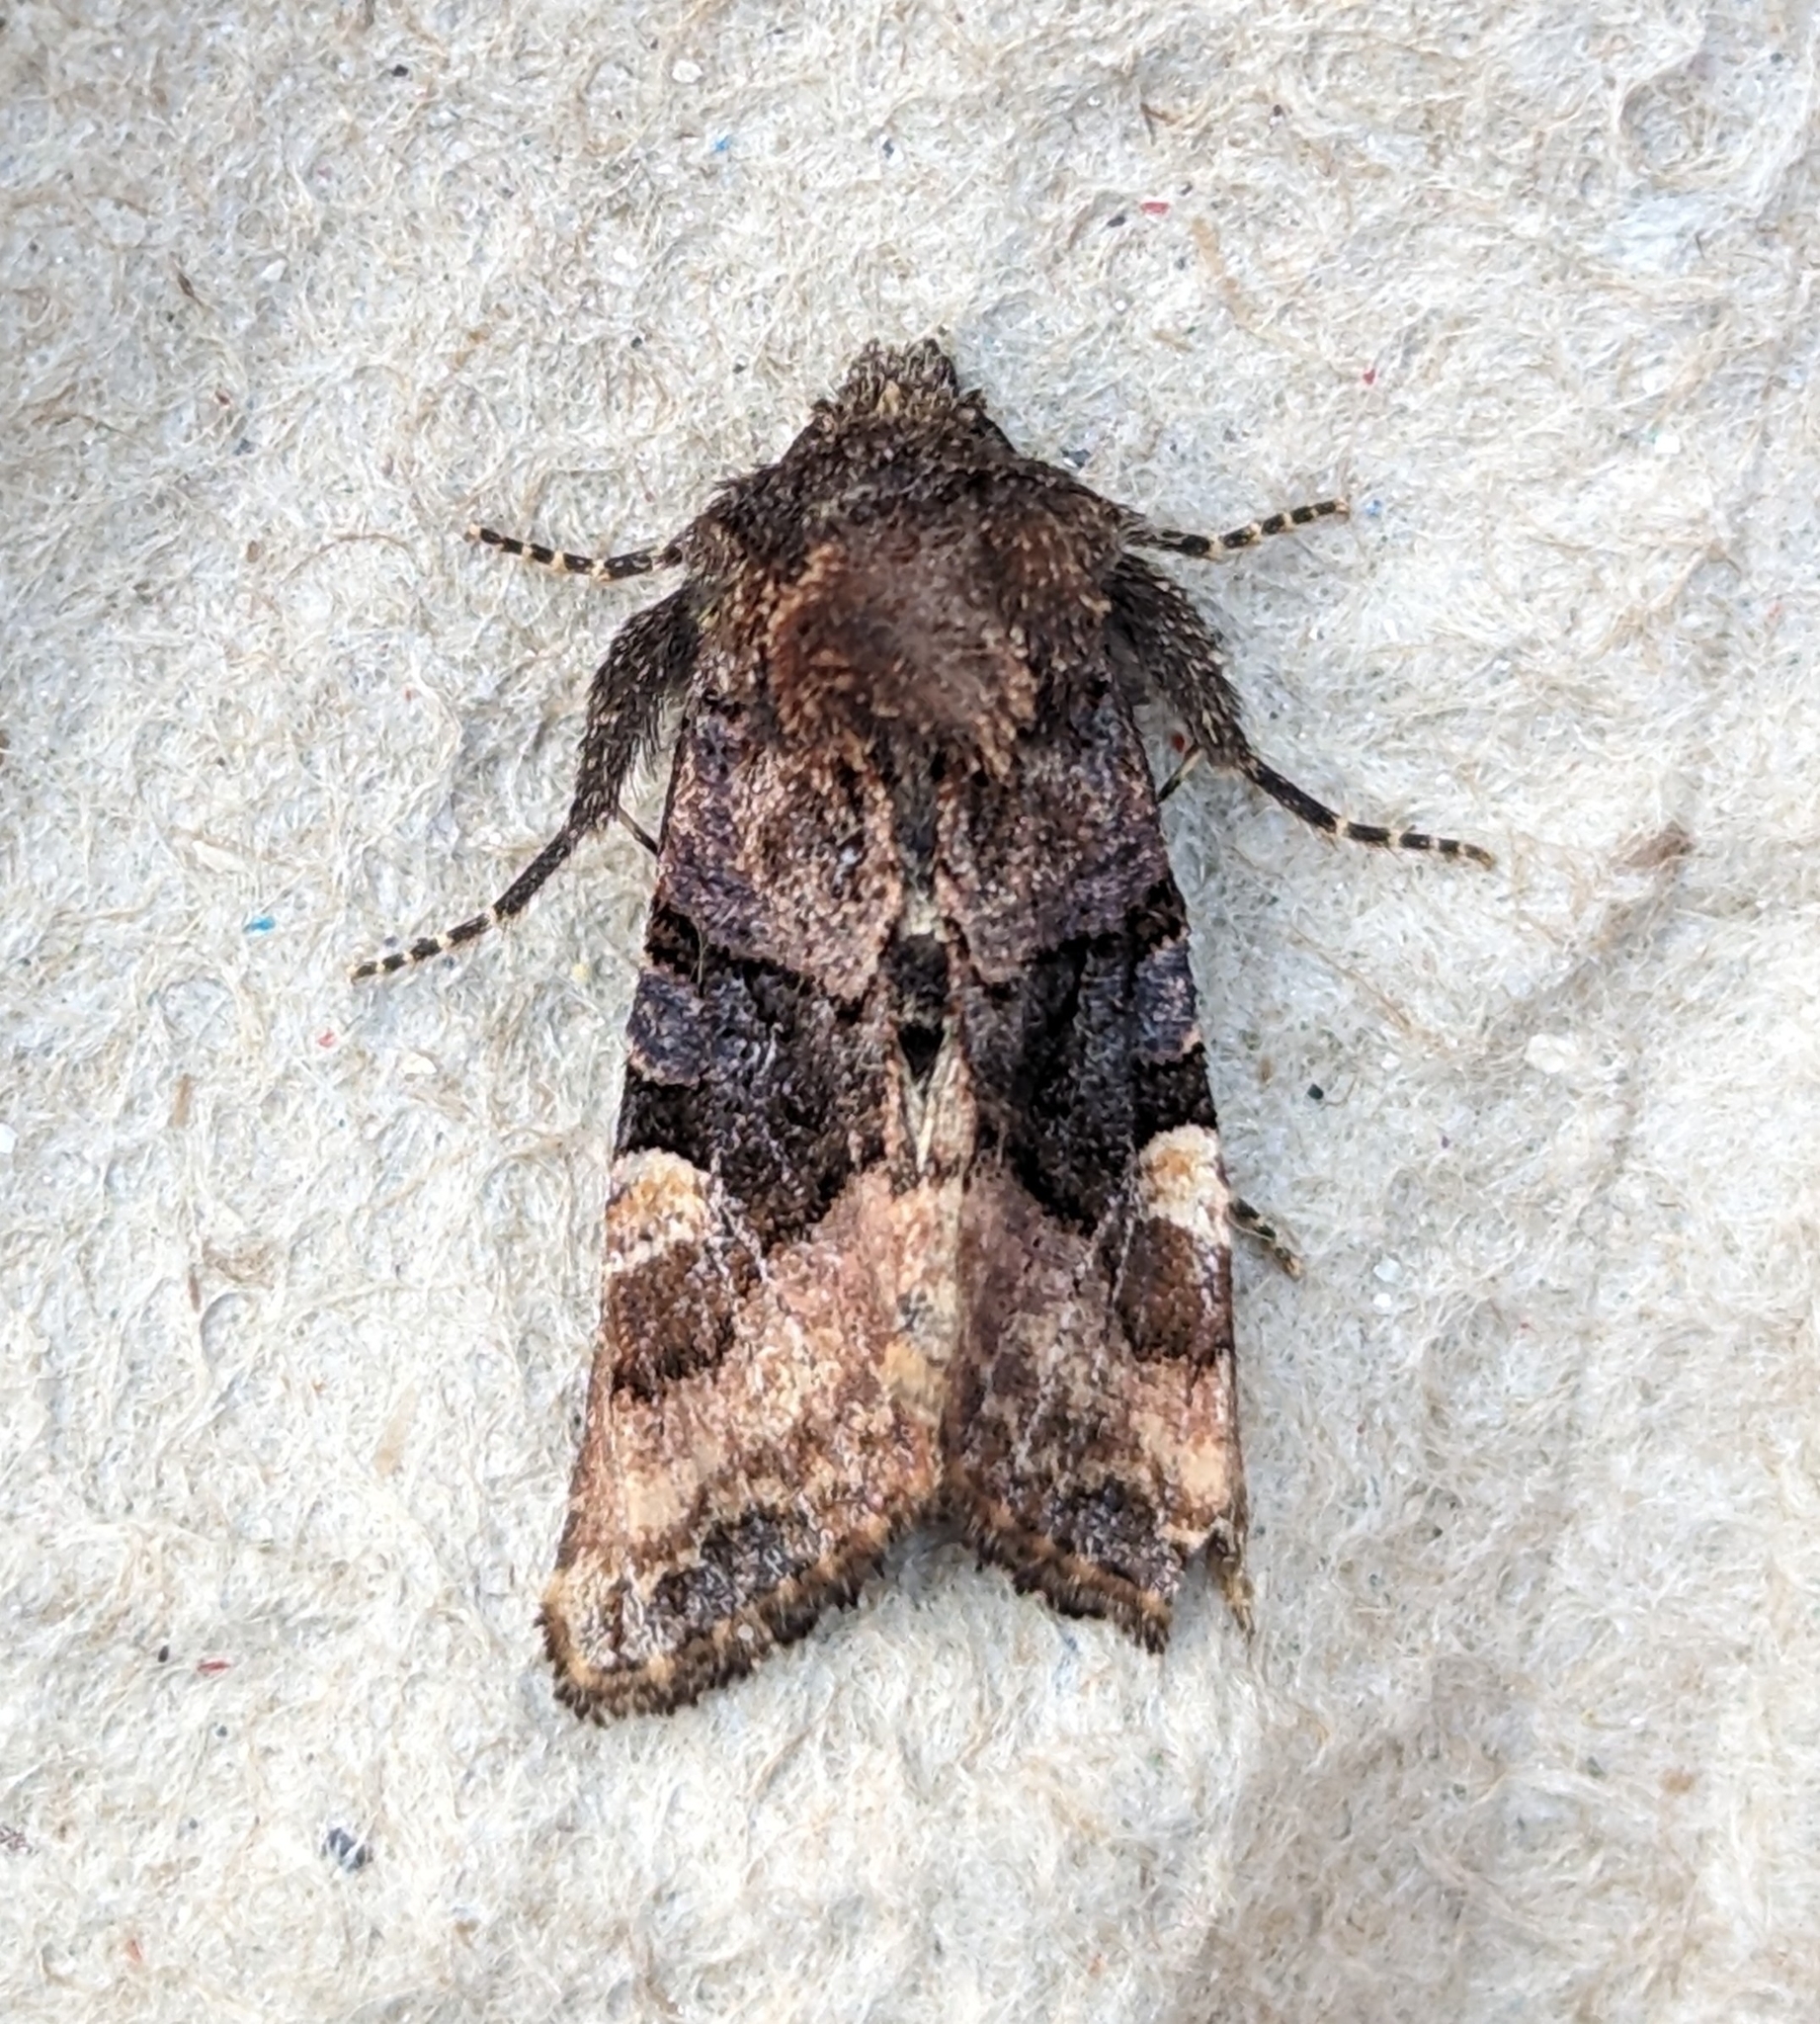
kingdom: Animalia
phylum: Arthropoda
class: Insecta
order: Lepidoptera
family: Noctuidae
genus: Euplexia
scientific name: Euplexia benesimilis
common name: American angle shades
